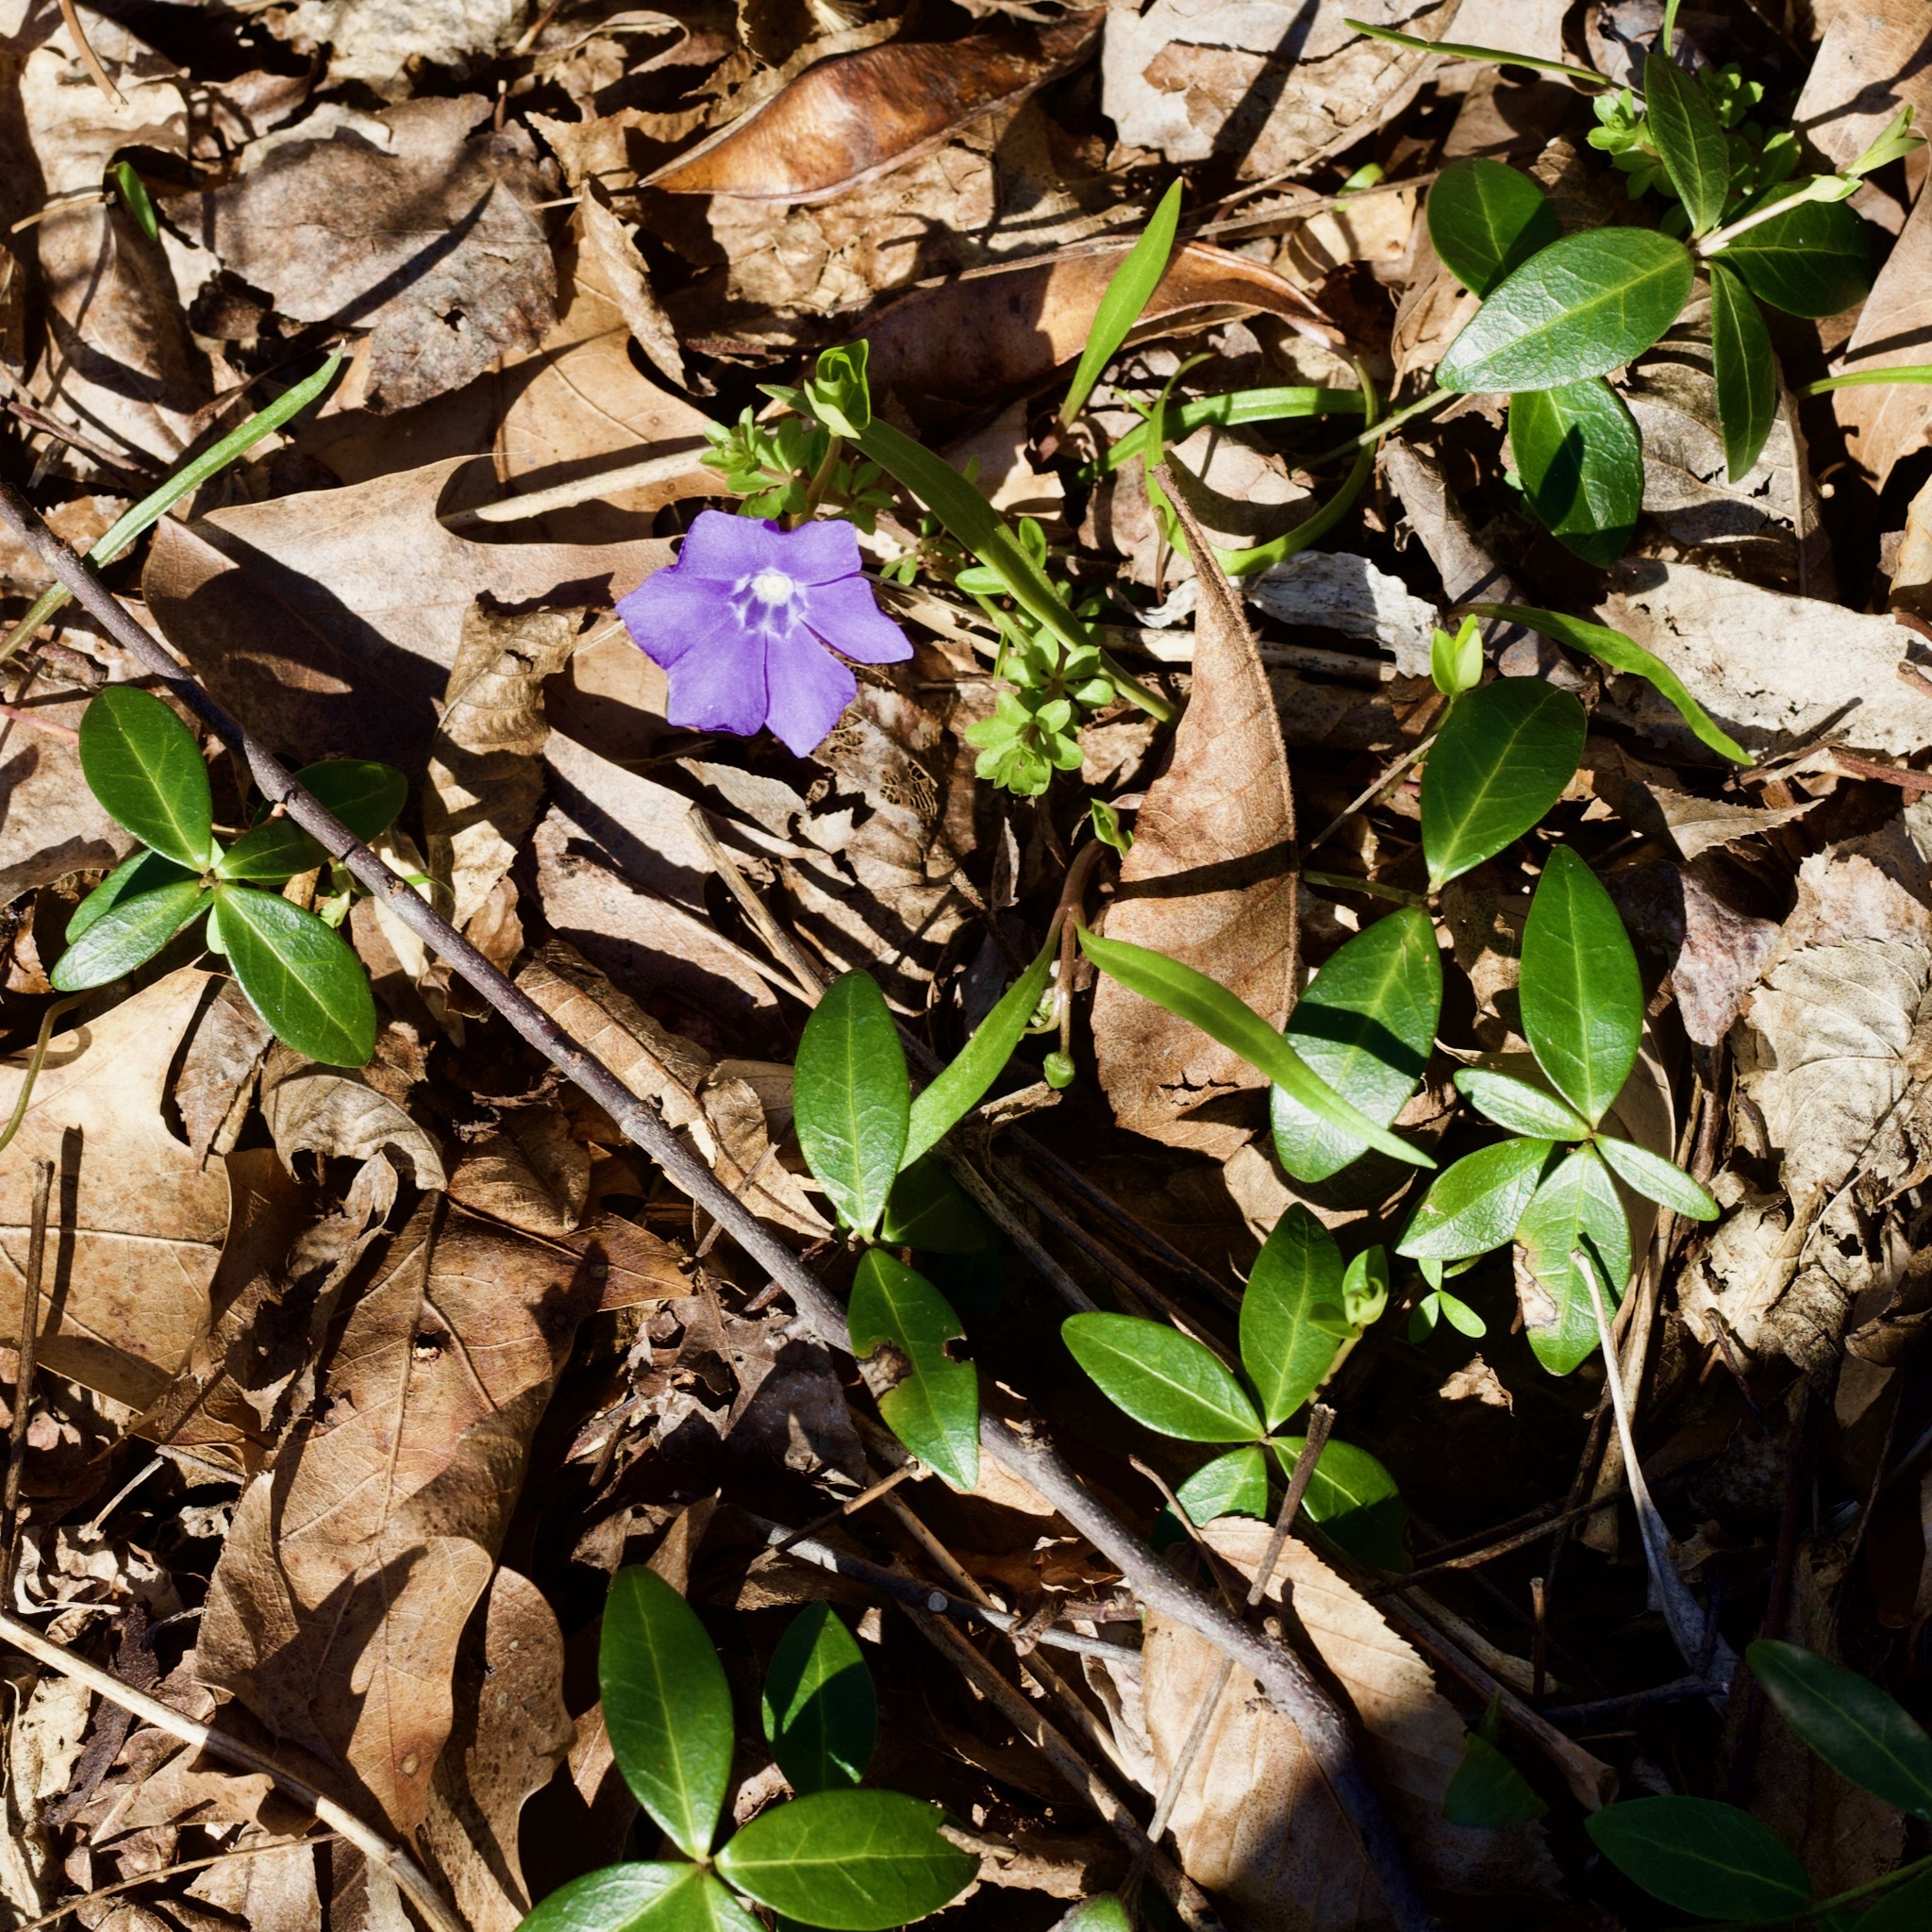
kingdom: Plantae
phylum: Tracheophyta
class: Magnoliopsida
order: Gentianales
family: Apocynaceae
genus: Vinca
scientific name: Vinca minor
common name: Lesser periwinkle
